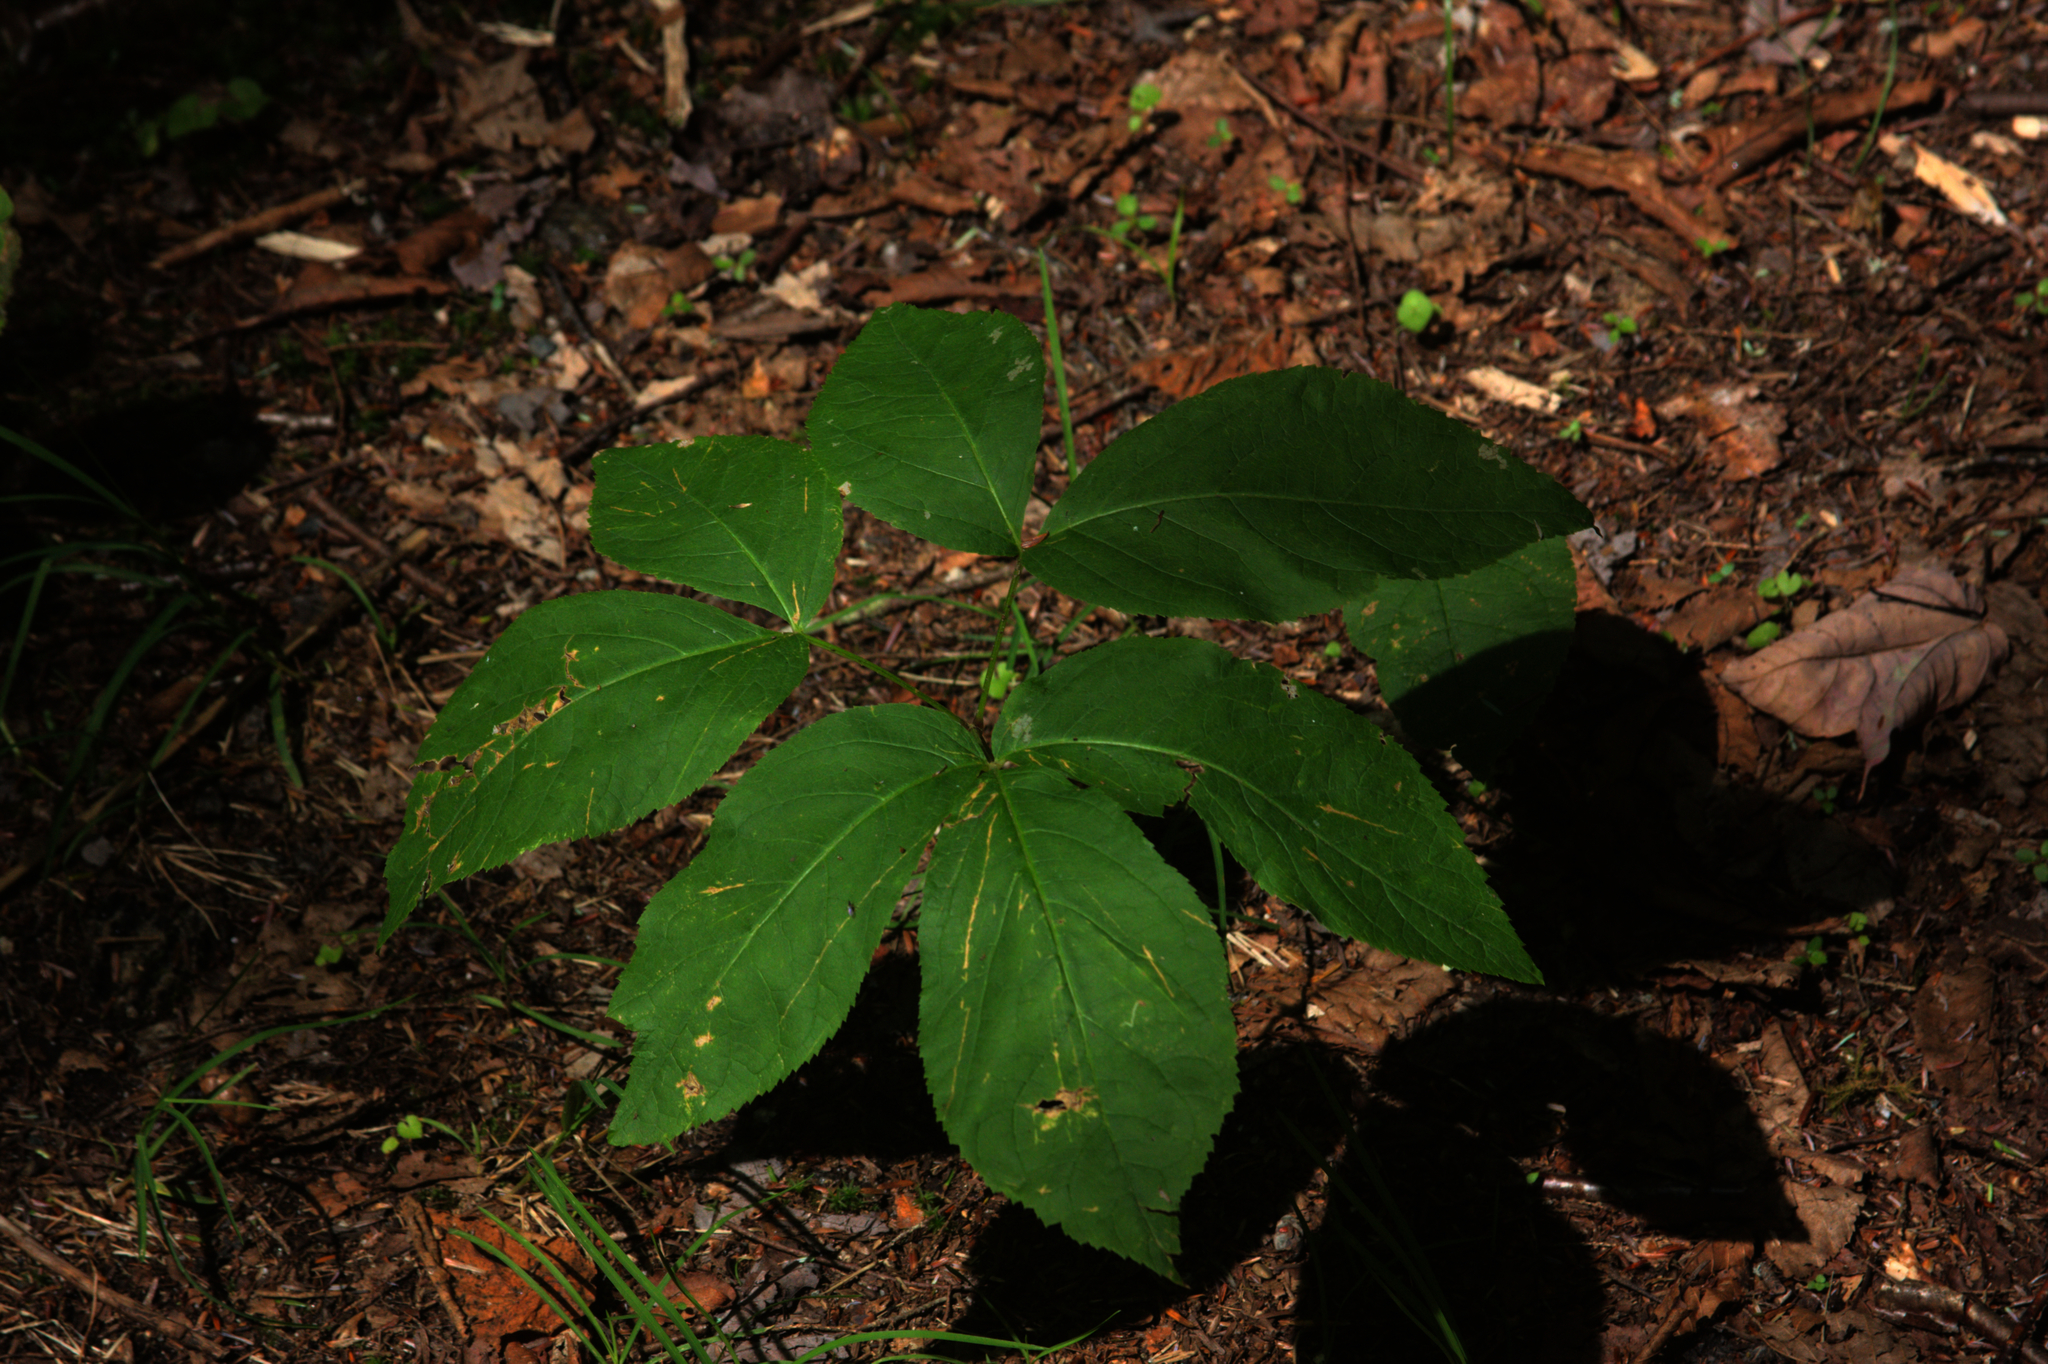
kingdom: Plantae
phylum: Tracheophyta
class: Magnoliopsida
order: Apiales
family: Araliaceae
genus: Aralia
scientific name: Aralia nudicaulis
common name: Wild sarsaparilla
